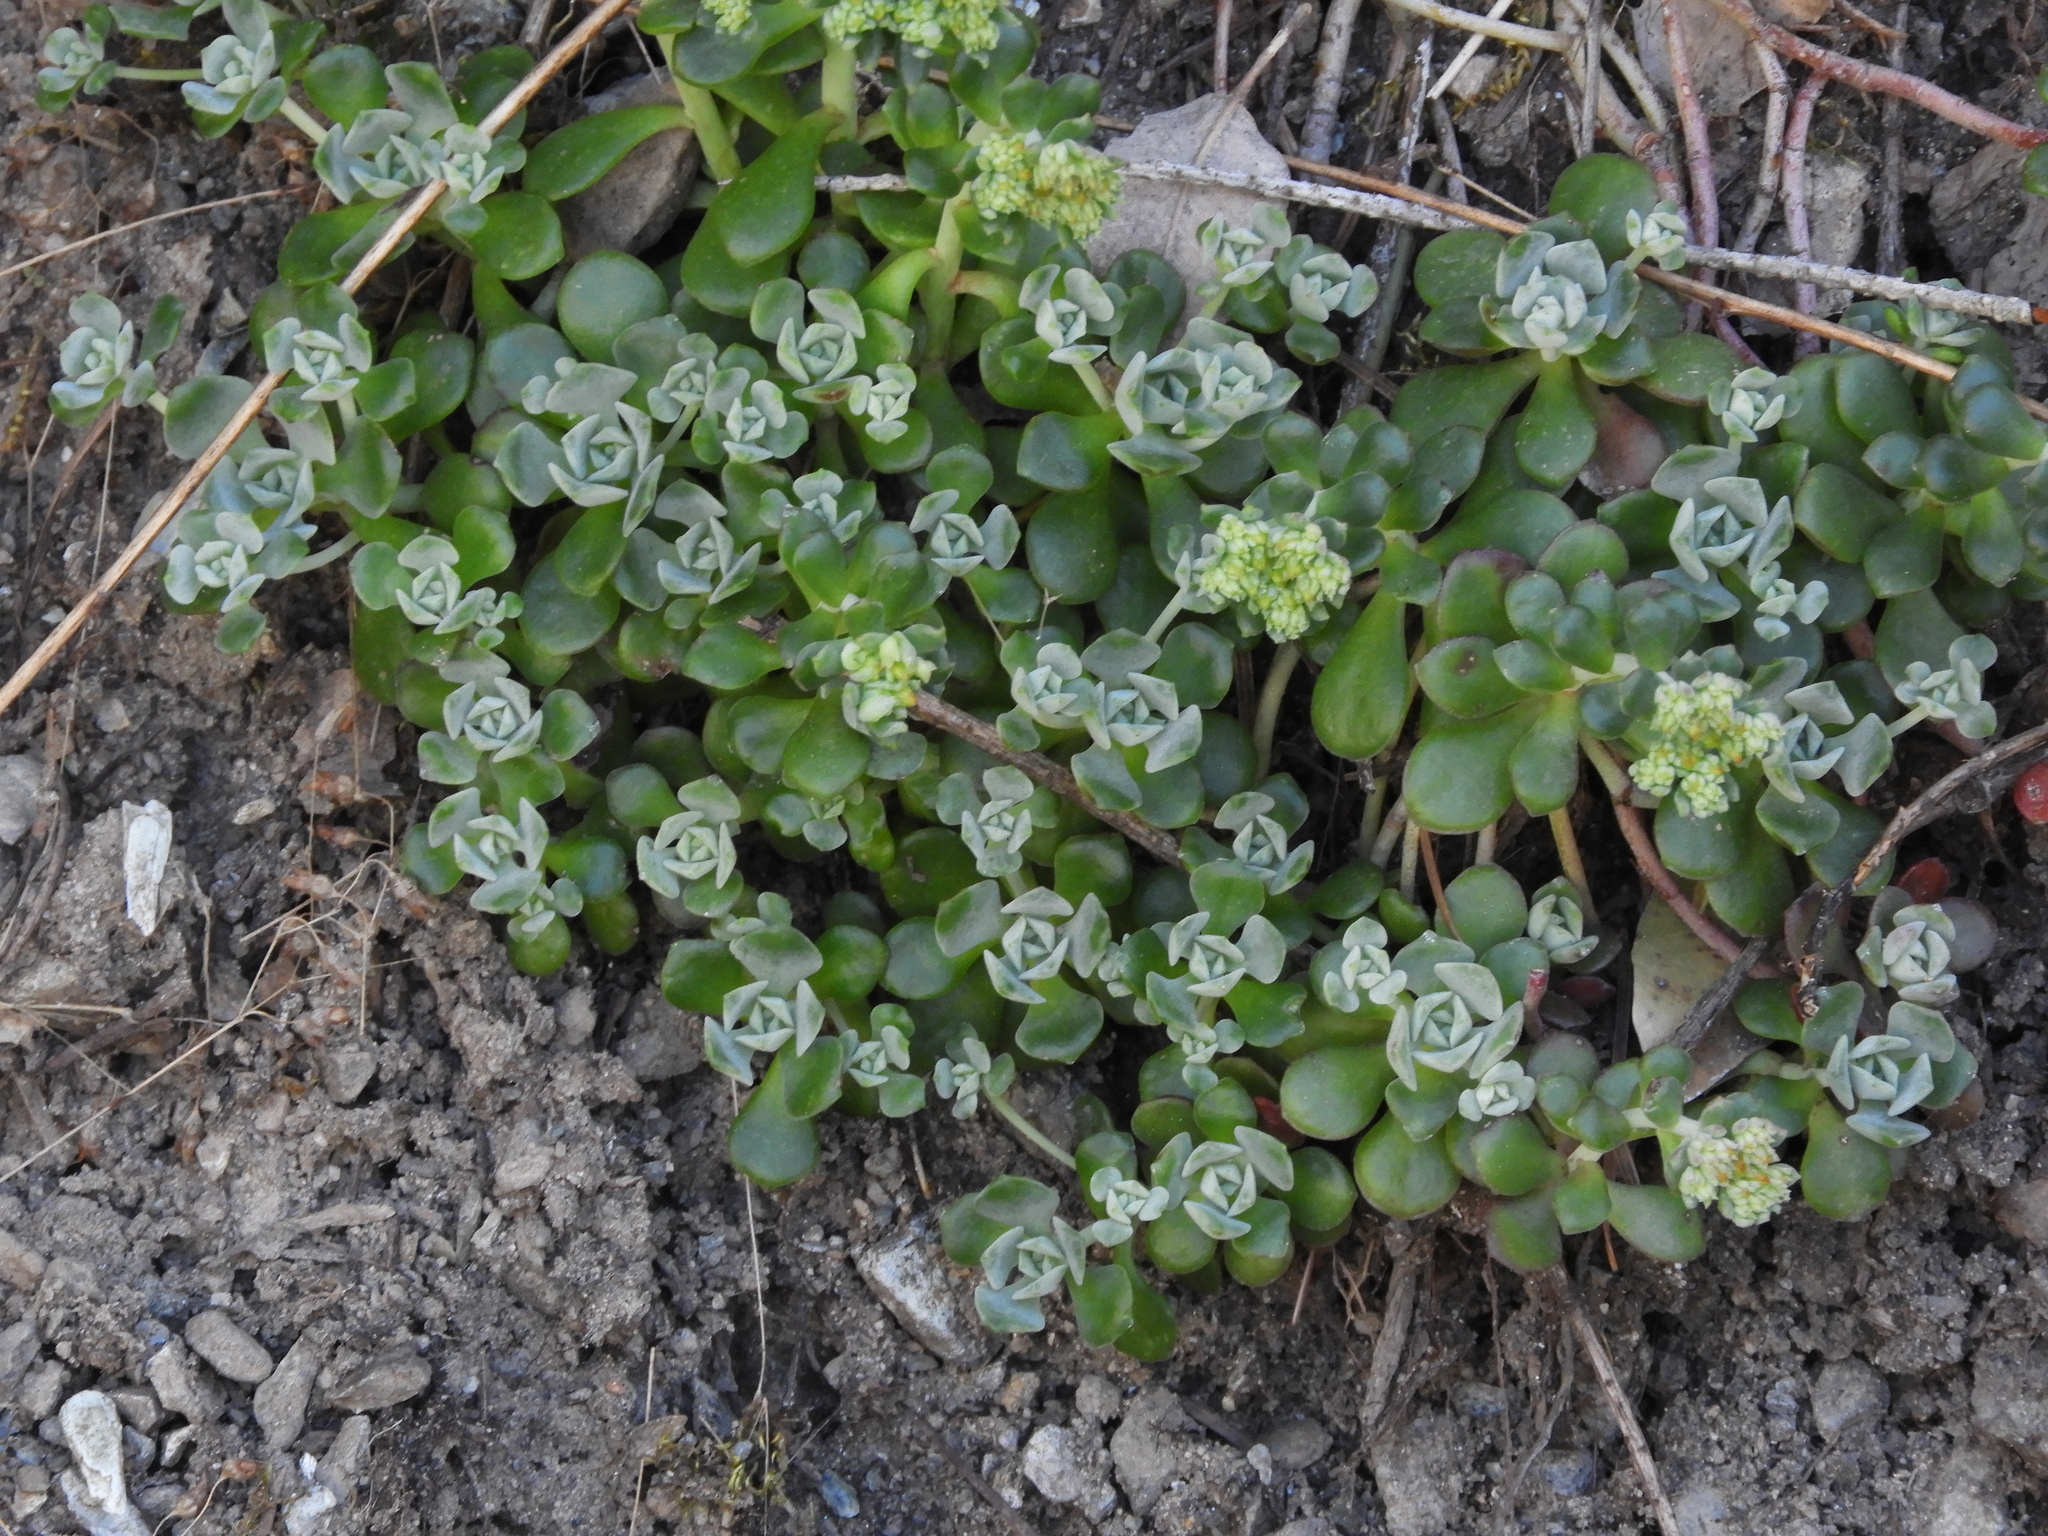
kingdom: Plantae
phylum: Tracheophyta
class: Magnoliopsida
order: Saxifragales
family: Crassulaceae
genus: Sedum
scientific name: Sedum spathulifolium
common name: Colorado stonecrop
